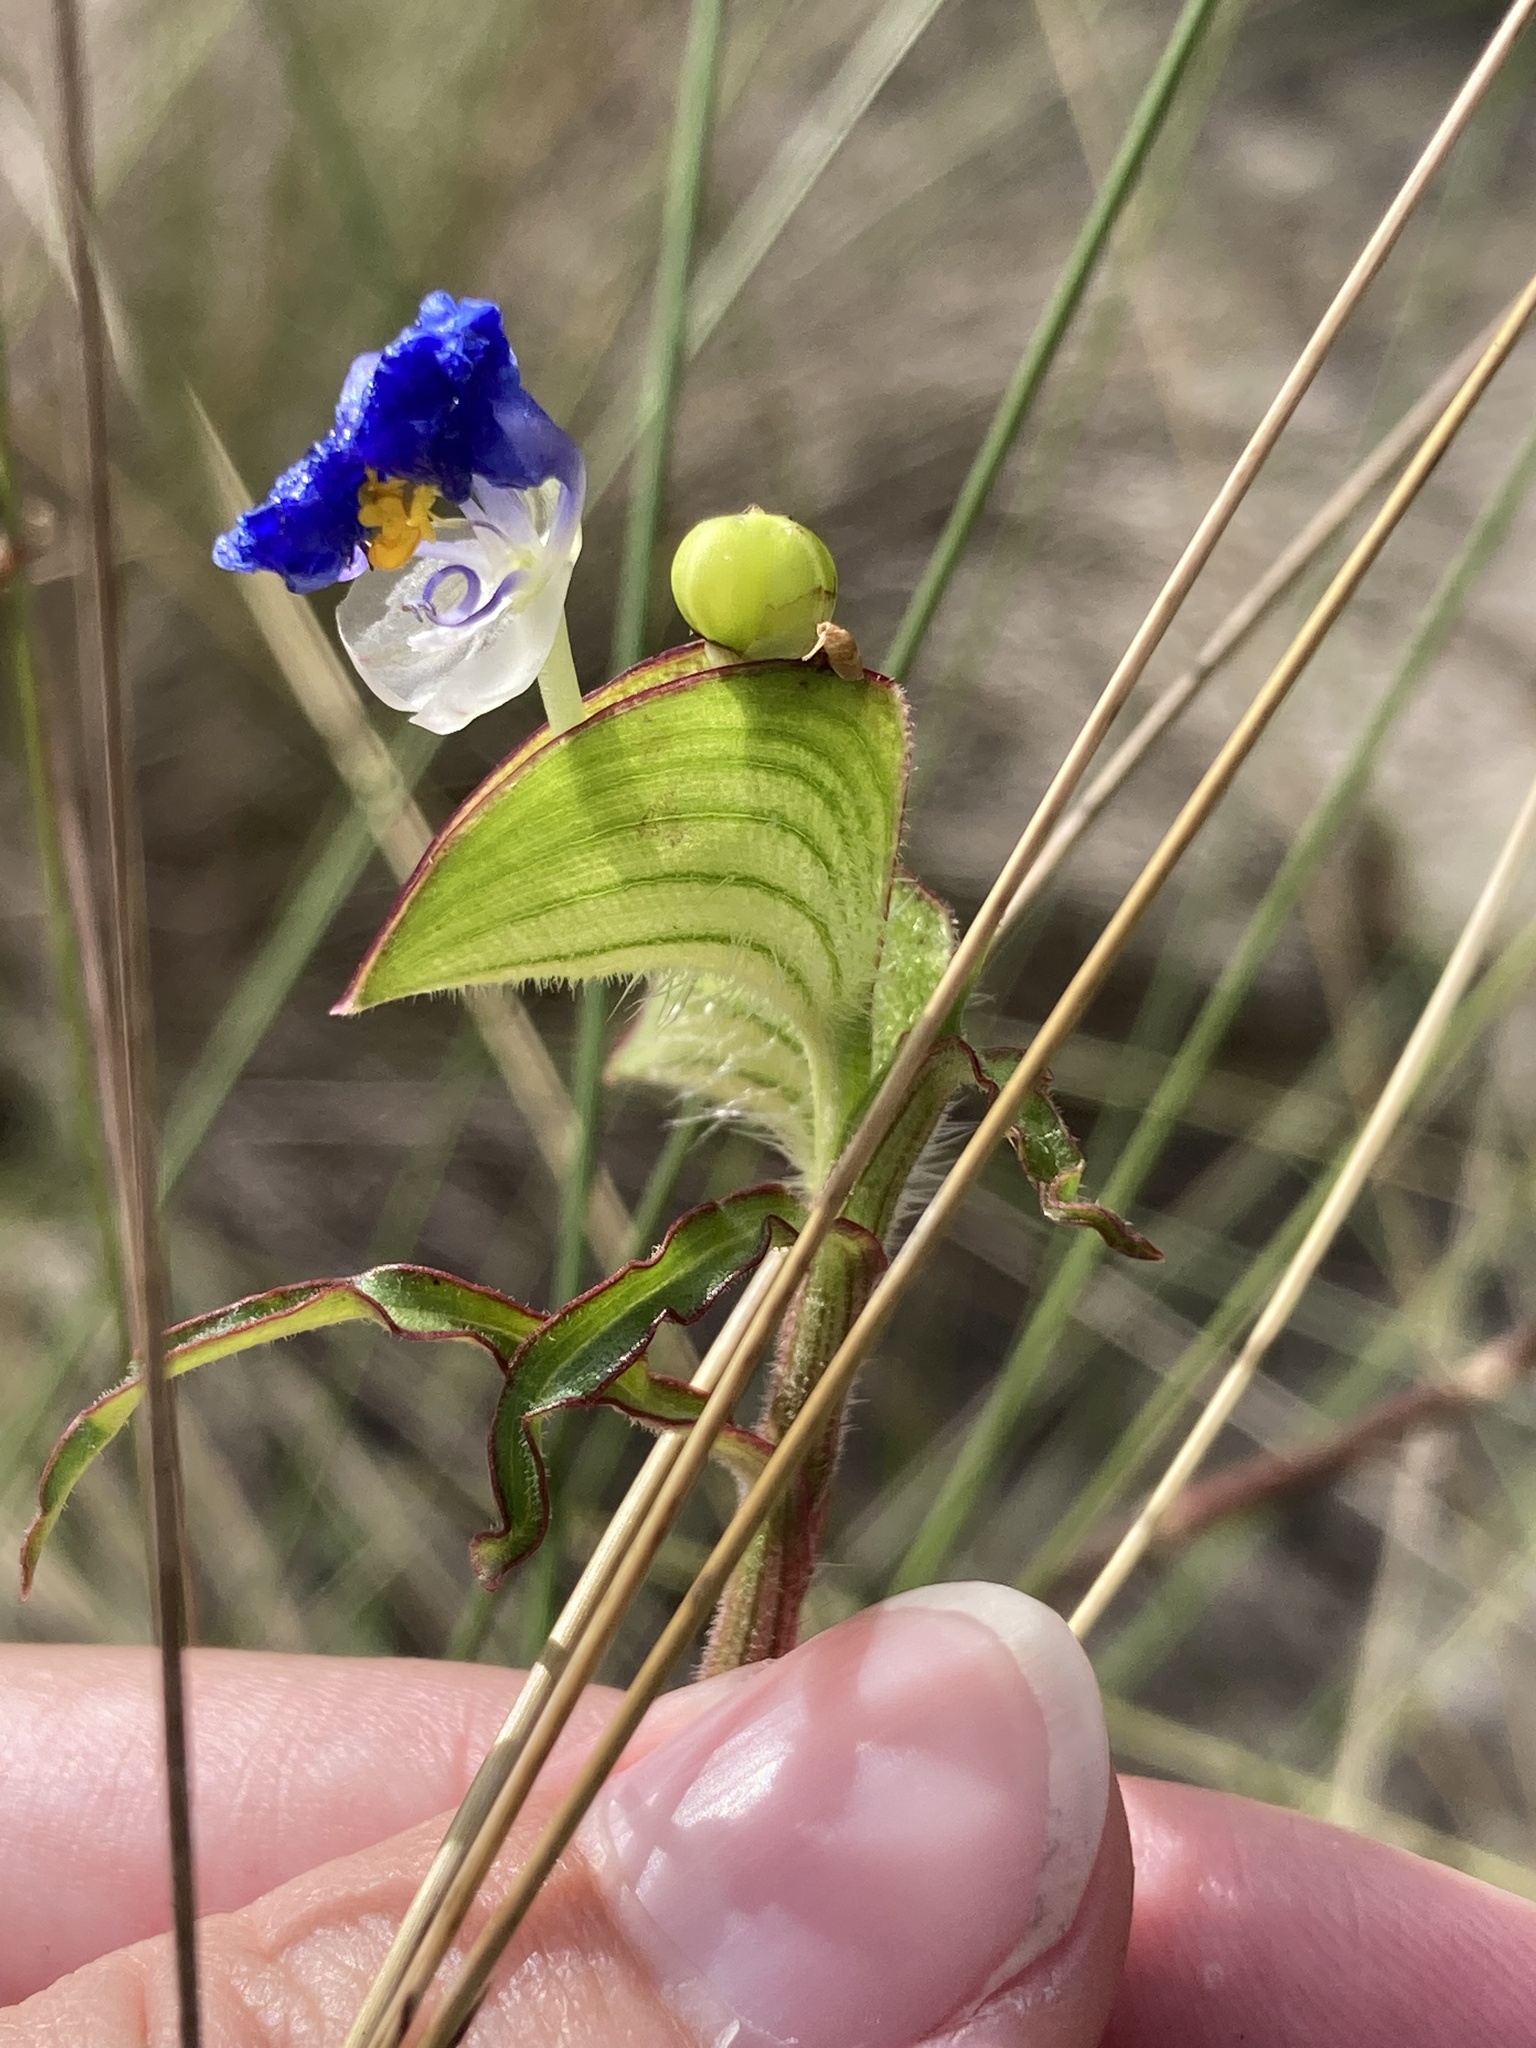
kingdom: Plantae
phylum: Tracheophyta
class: Liliopsida
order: Commelinales
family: Commelinaceae
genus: Commelina
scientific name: Commelina erecta
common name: Blousel blommetjie
